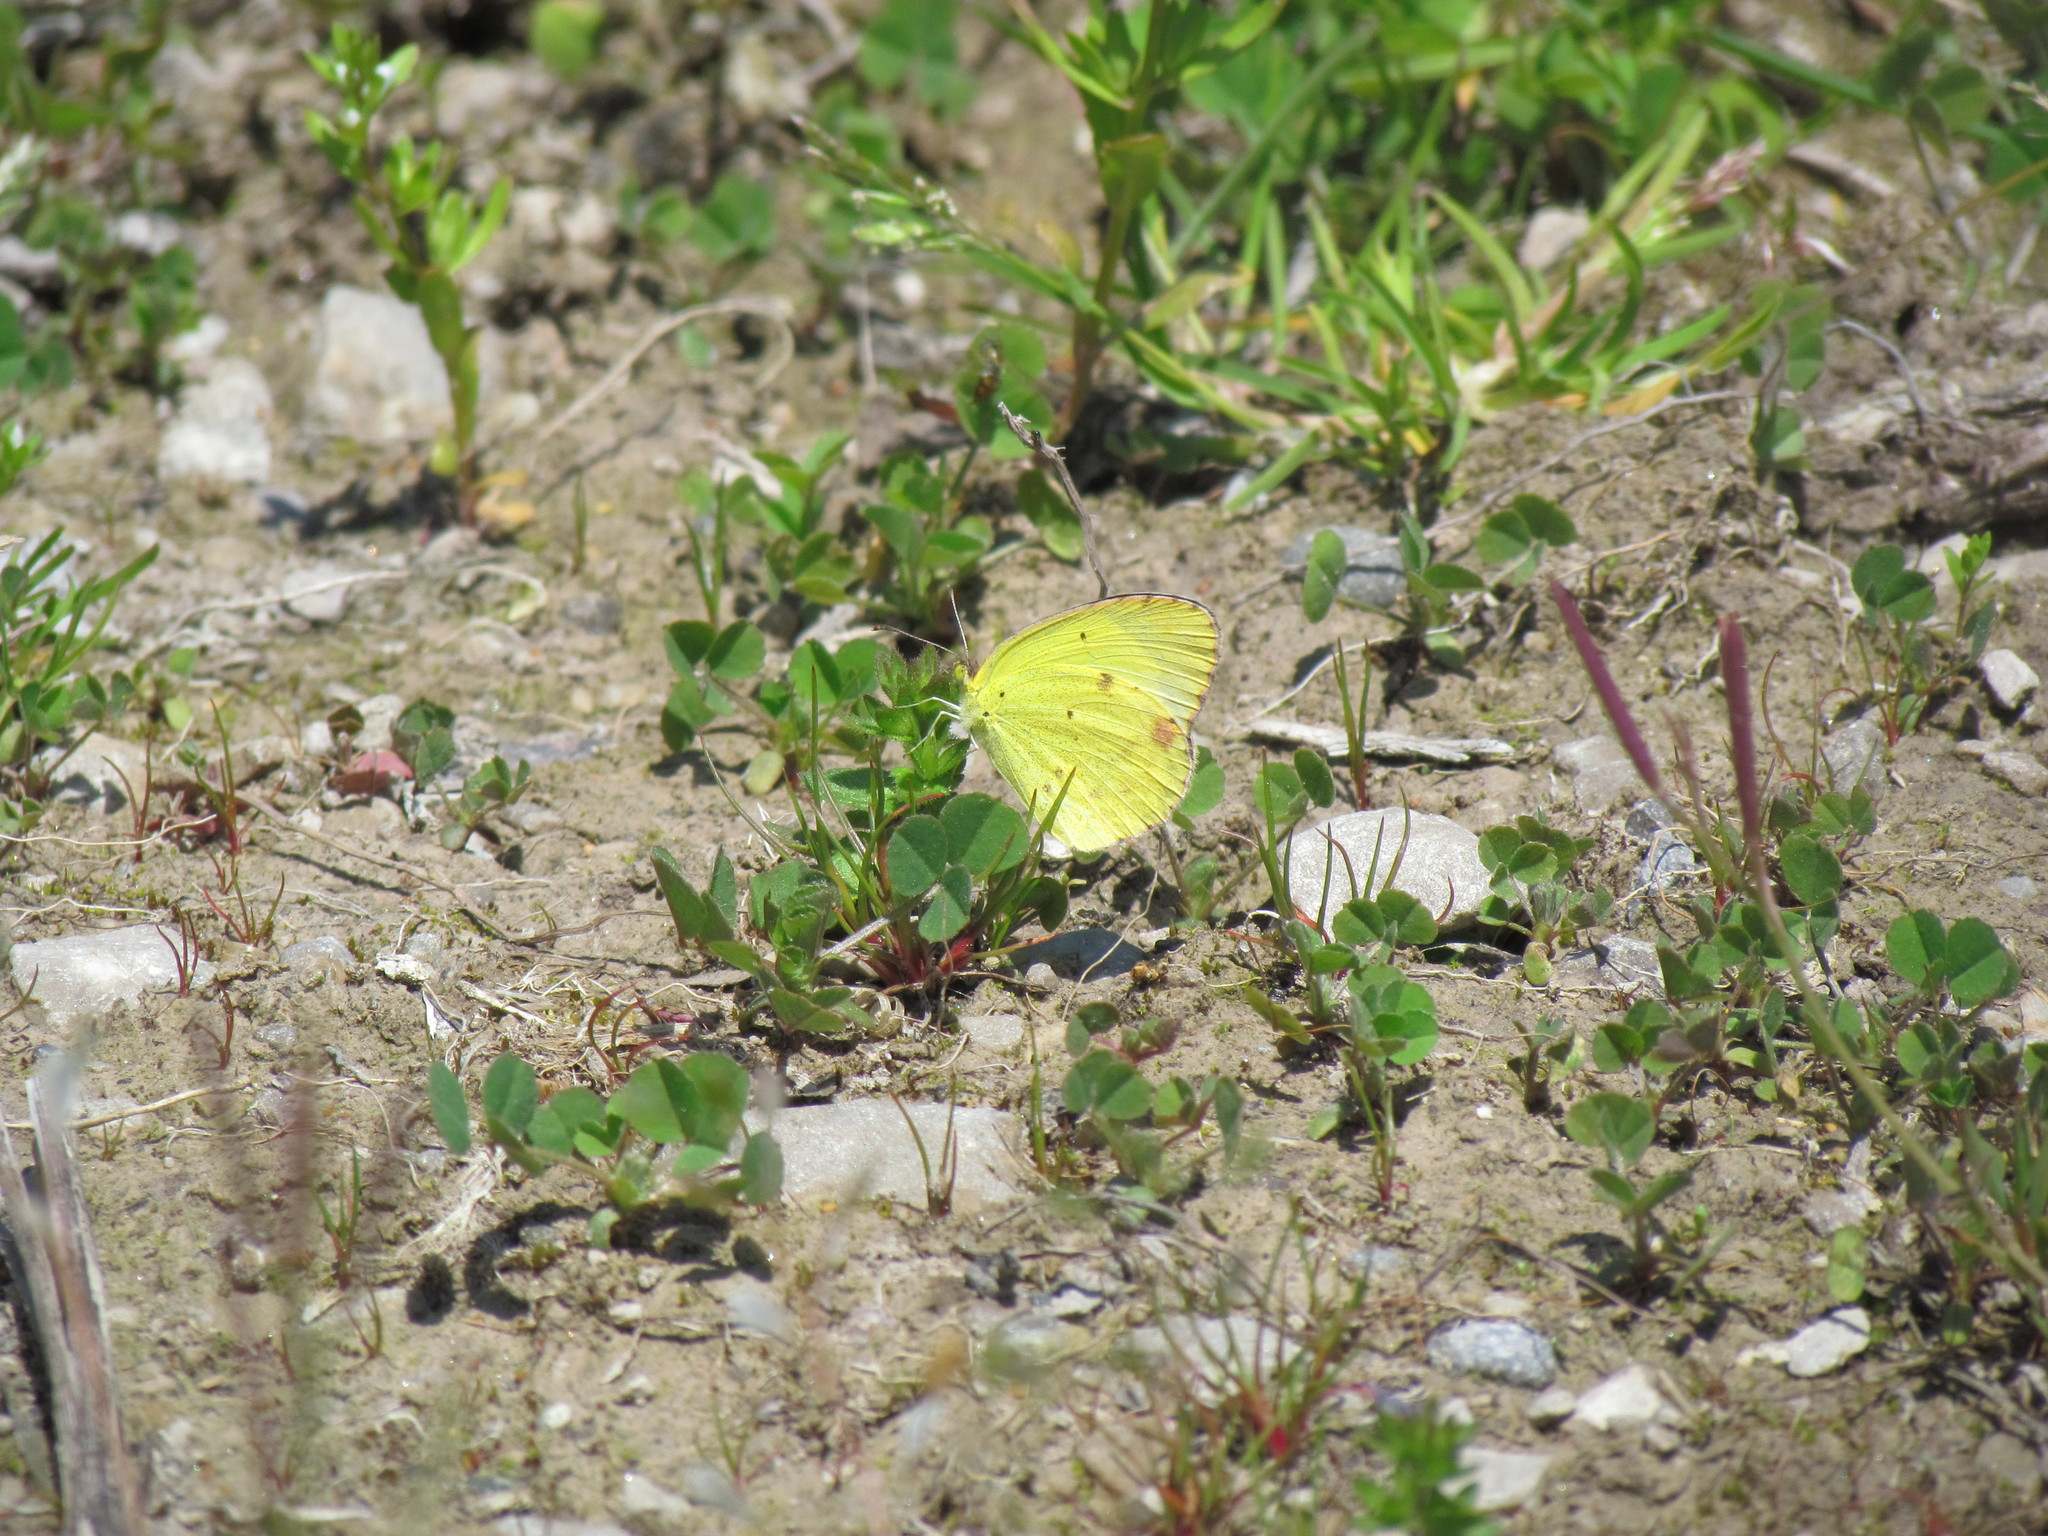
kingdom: Animalia
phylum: Arthropoda
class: Insecta
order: Lepidoptera
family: Pieridae
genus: Pyrisitia
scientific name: Pyrisitia lisa
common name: Little yellow
